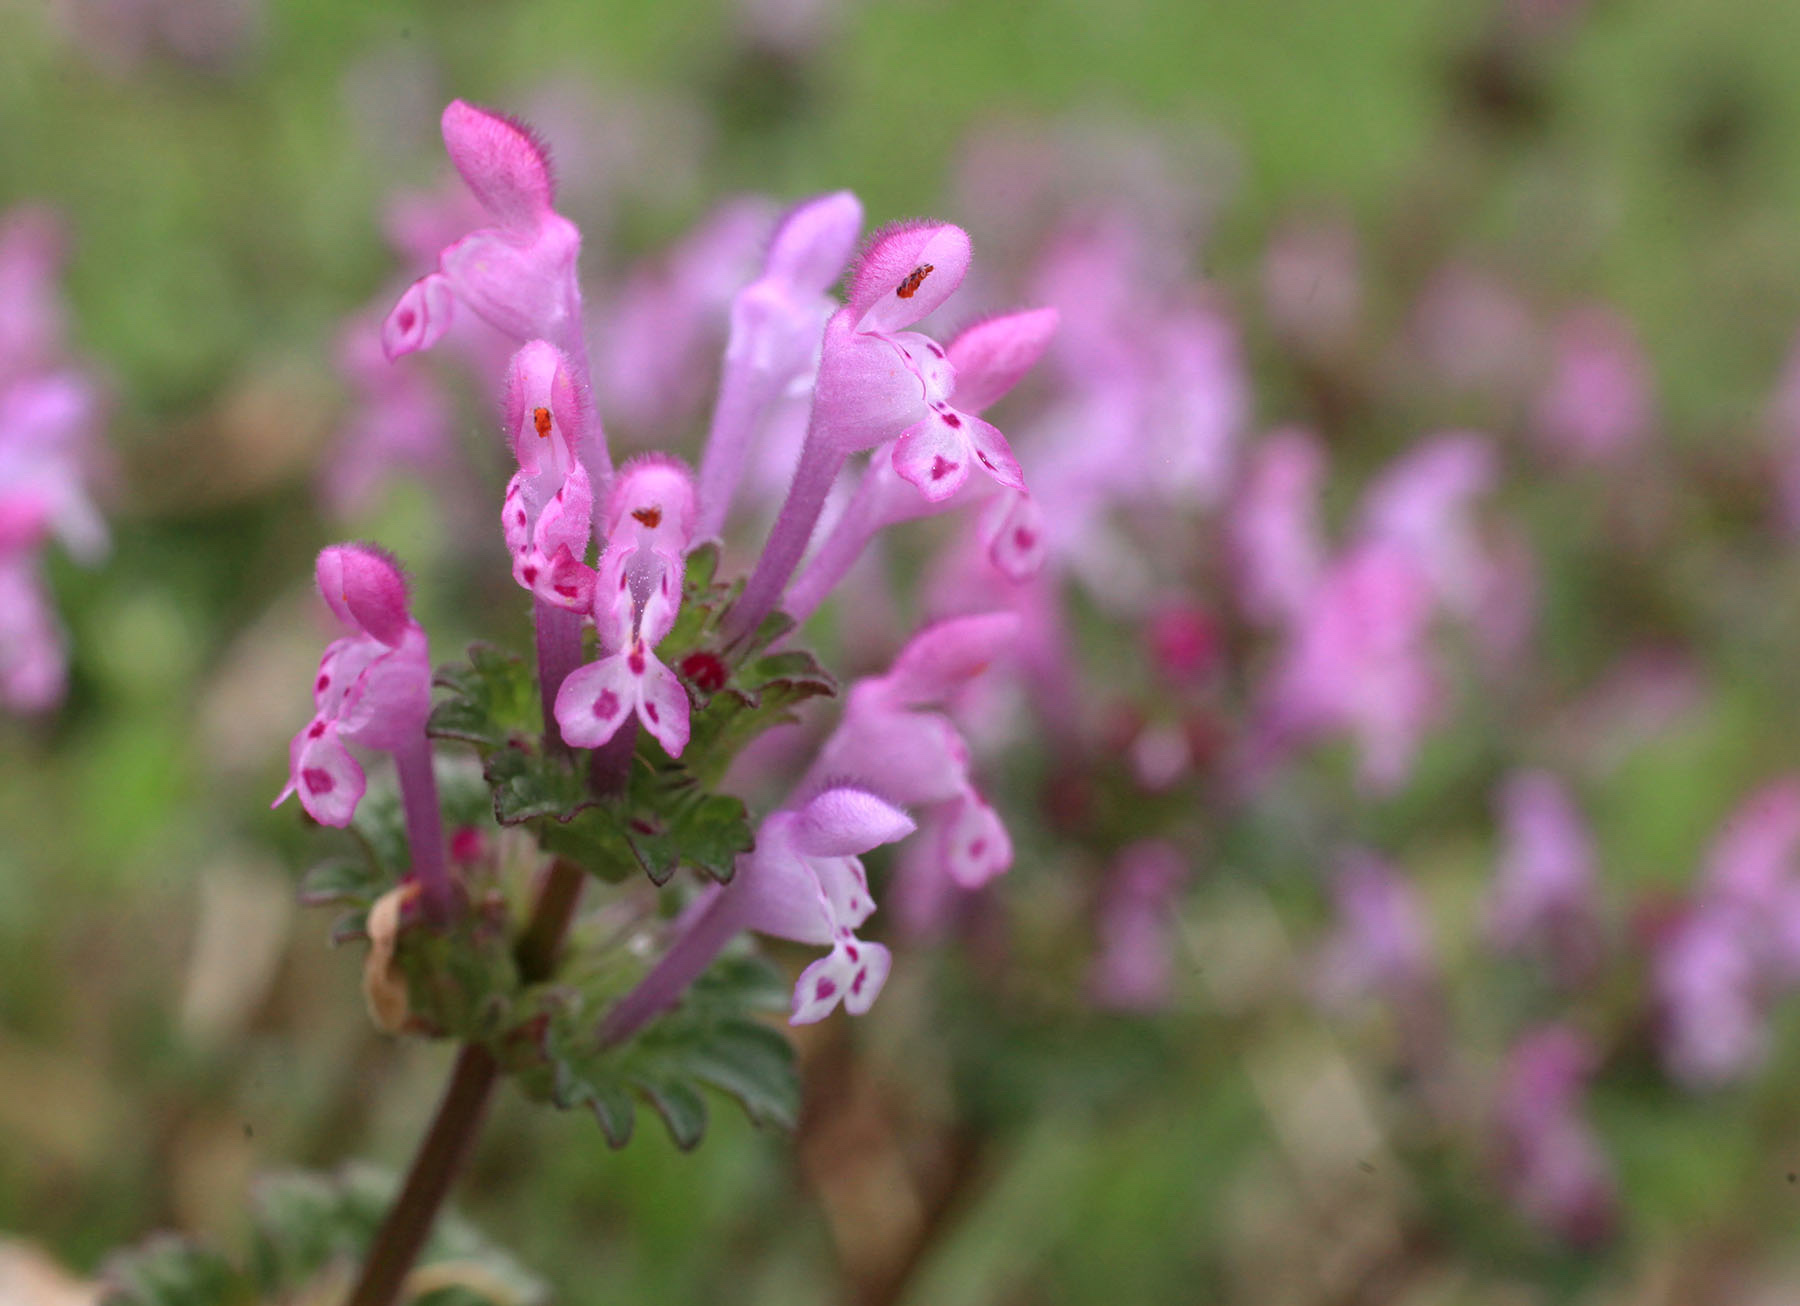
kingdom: Plantae
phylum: Tracheophyta
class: Magnoliopsida
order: Lamiales
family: Lamiaceae
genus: Lamium
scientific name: Lamium amplexicaule
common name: Henbit dead-nettle
